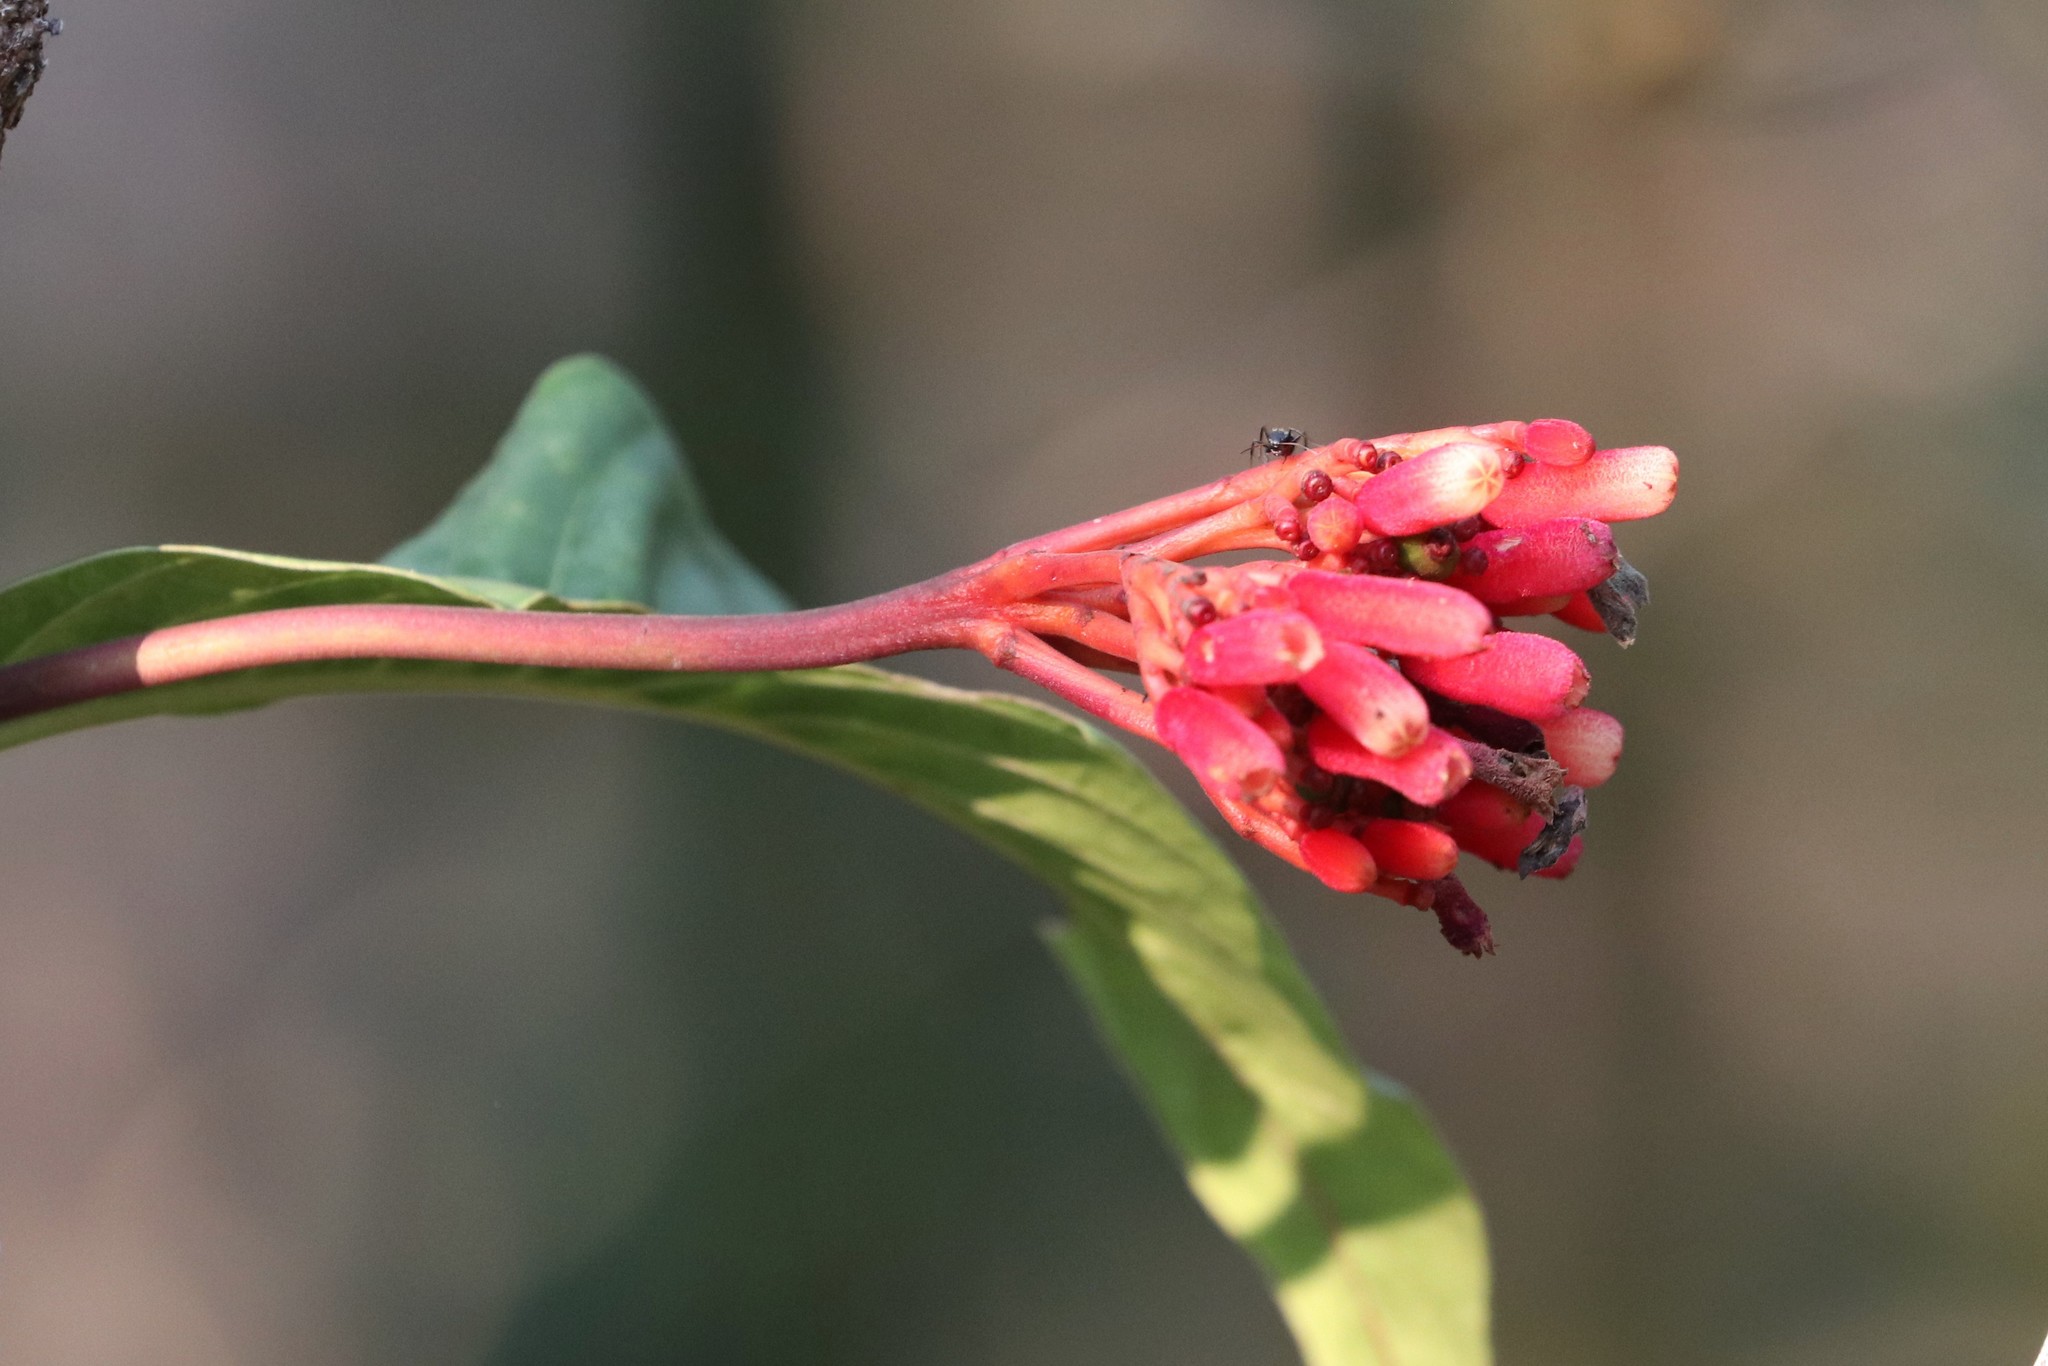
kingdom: Plantae
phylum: Tracheophyta
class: Magnoliopsida
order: Gentianales
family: Rubiaceae
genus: Palicourea
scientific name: Palicourea nitidella
